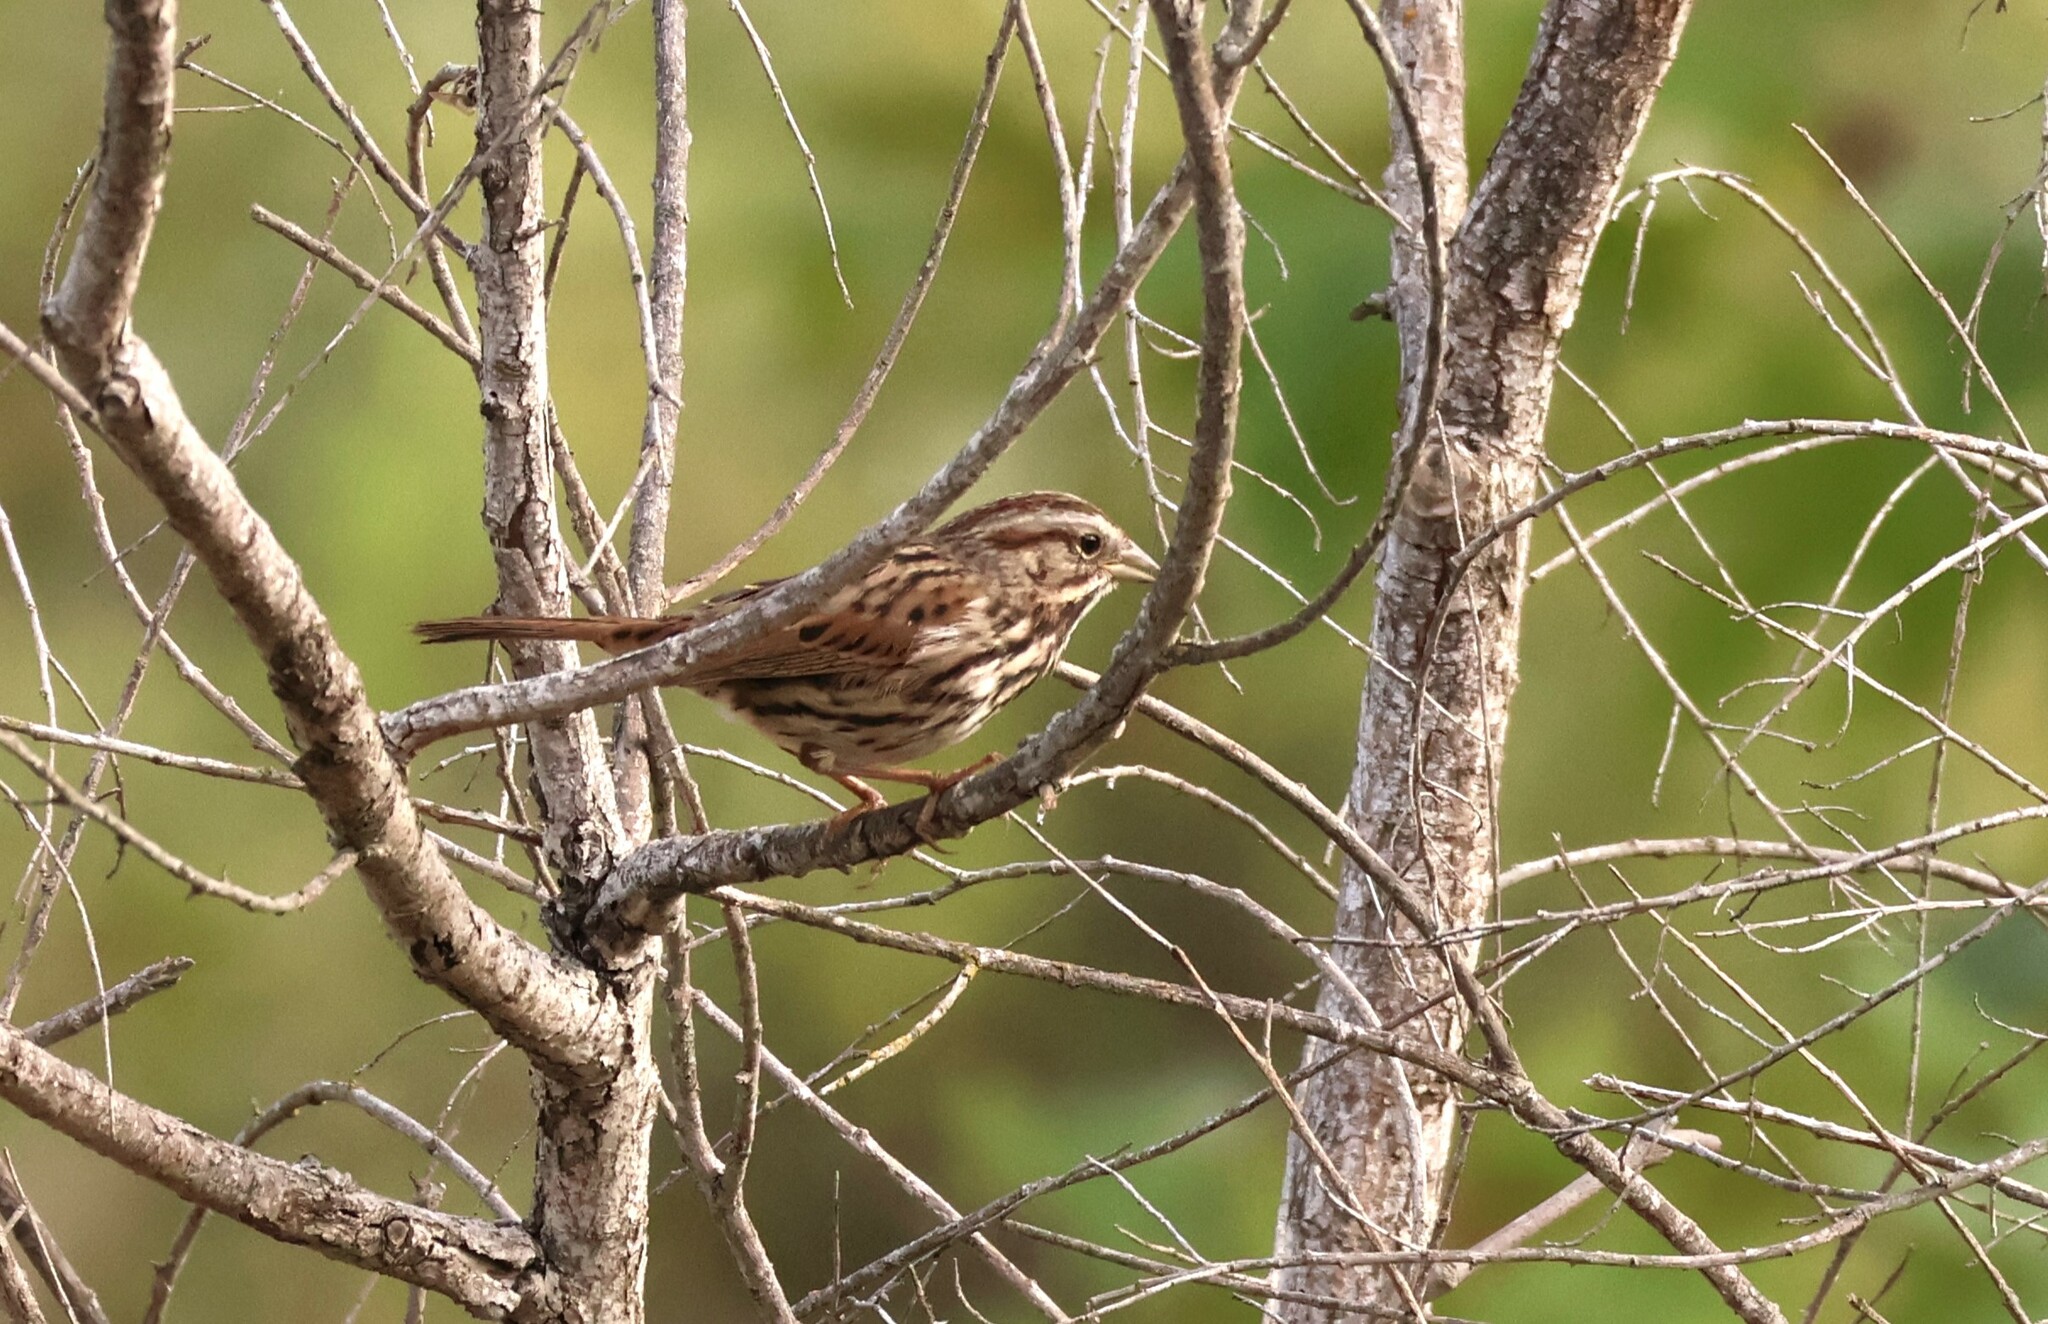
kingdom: Animalia
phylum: Chordata
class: Aves
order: Passeriformes
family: Passerellidae
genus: Melospiza
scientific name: Melospiza melodia
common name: Song sparrow
